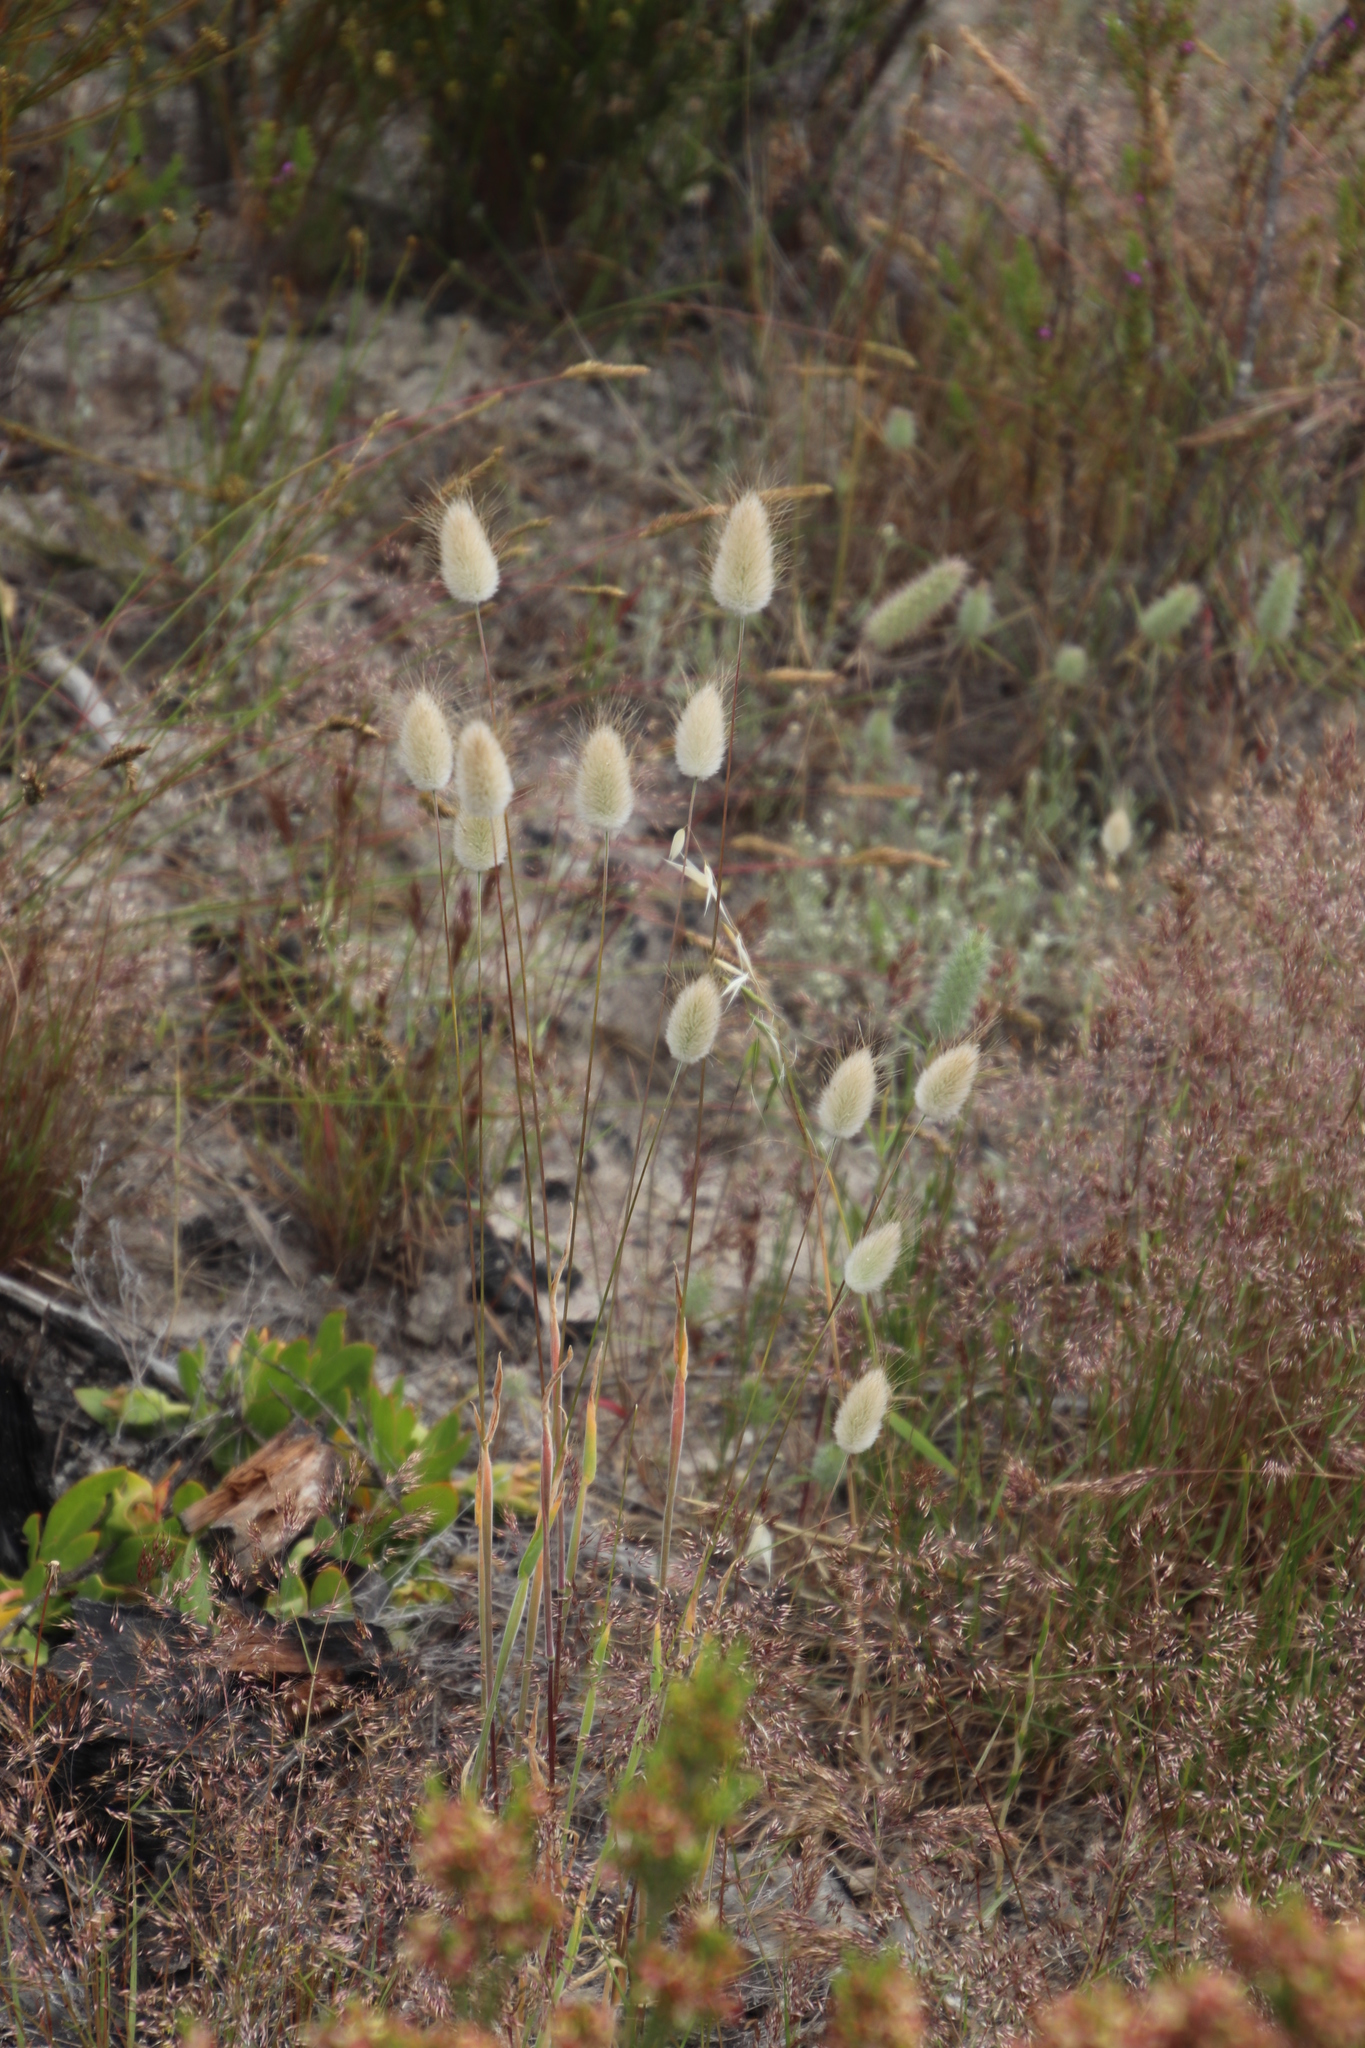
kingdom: Plantae
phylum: Tracheophyta
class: Liliopsida
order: Poales
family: Poaceae
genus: Lagurus
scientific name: Lagurus ovatus
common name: Hare's-tail
